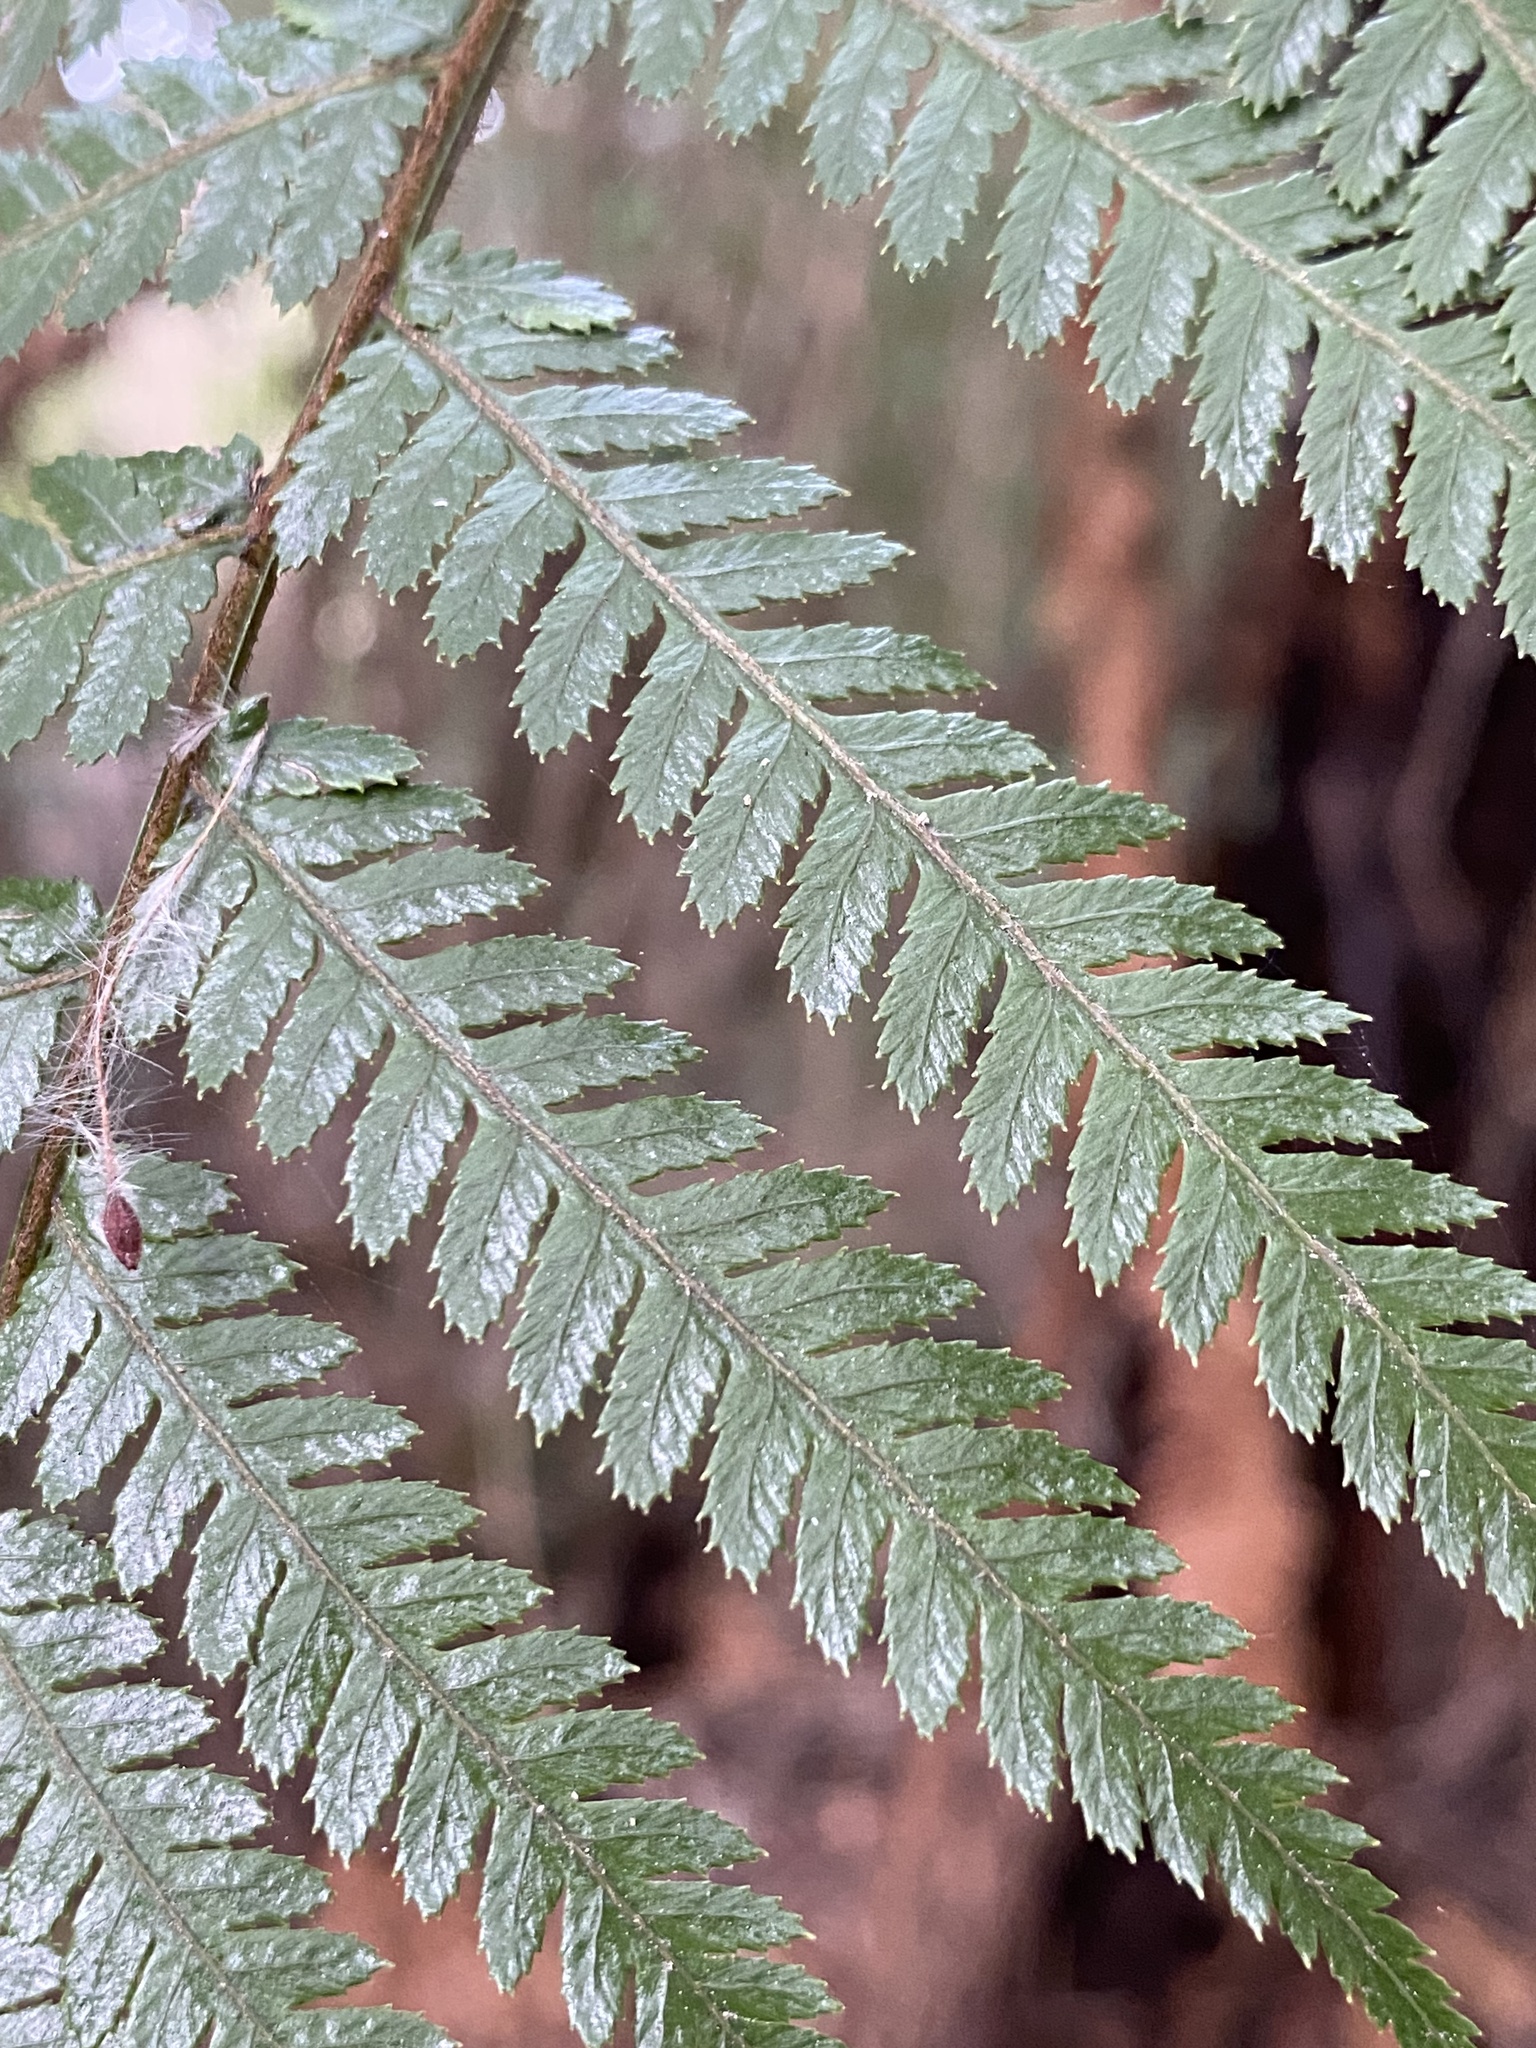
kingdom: Plantae
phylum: Tracheophyta
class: Polypodiopsida
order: Cyatheales
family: Dicksoniaceae
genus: Dicksonia
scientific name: Dicksonia squarrosa
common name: Hard treefern
